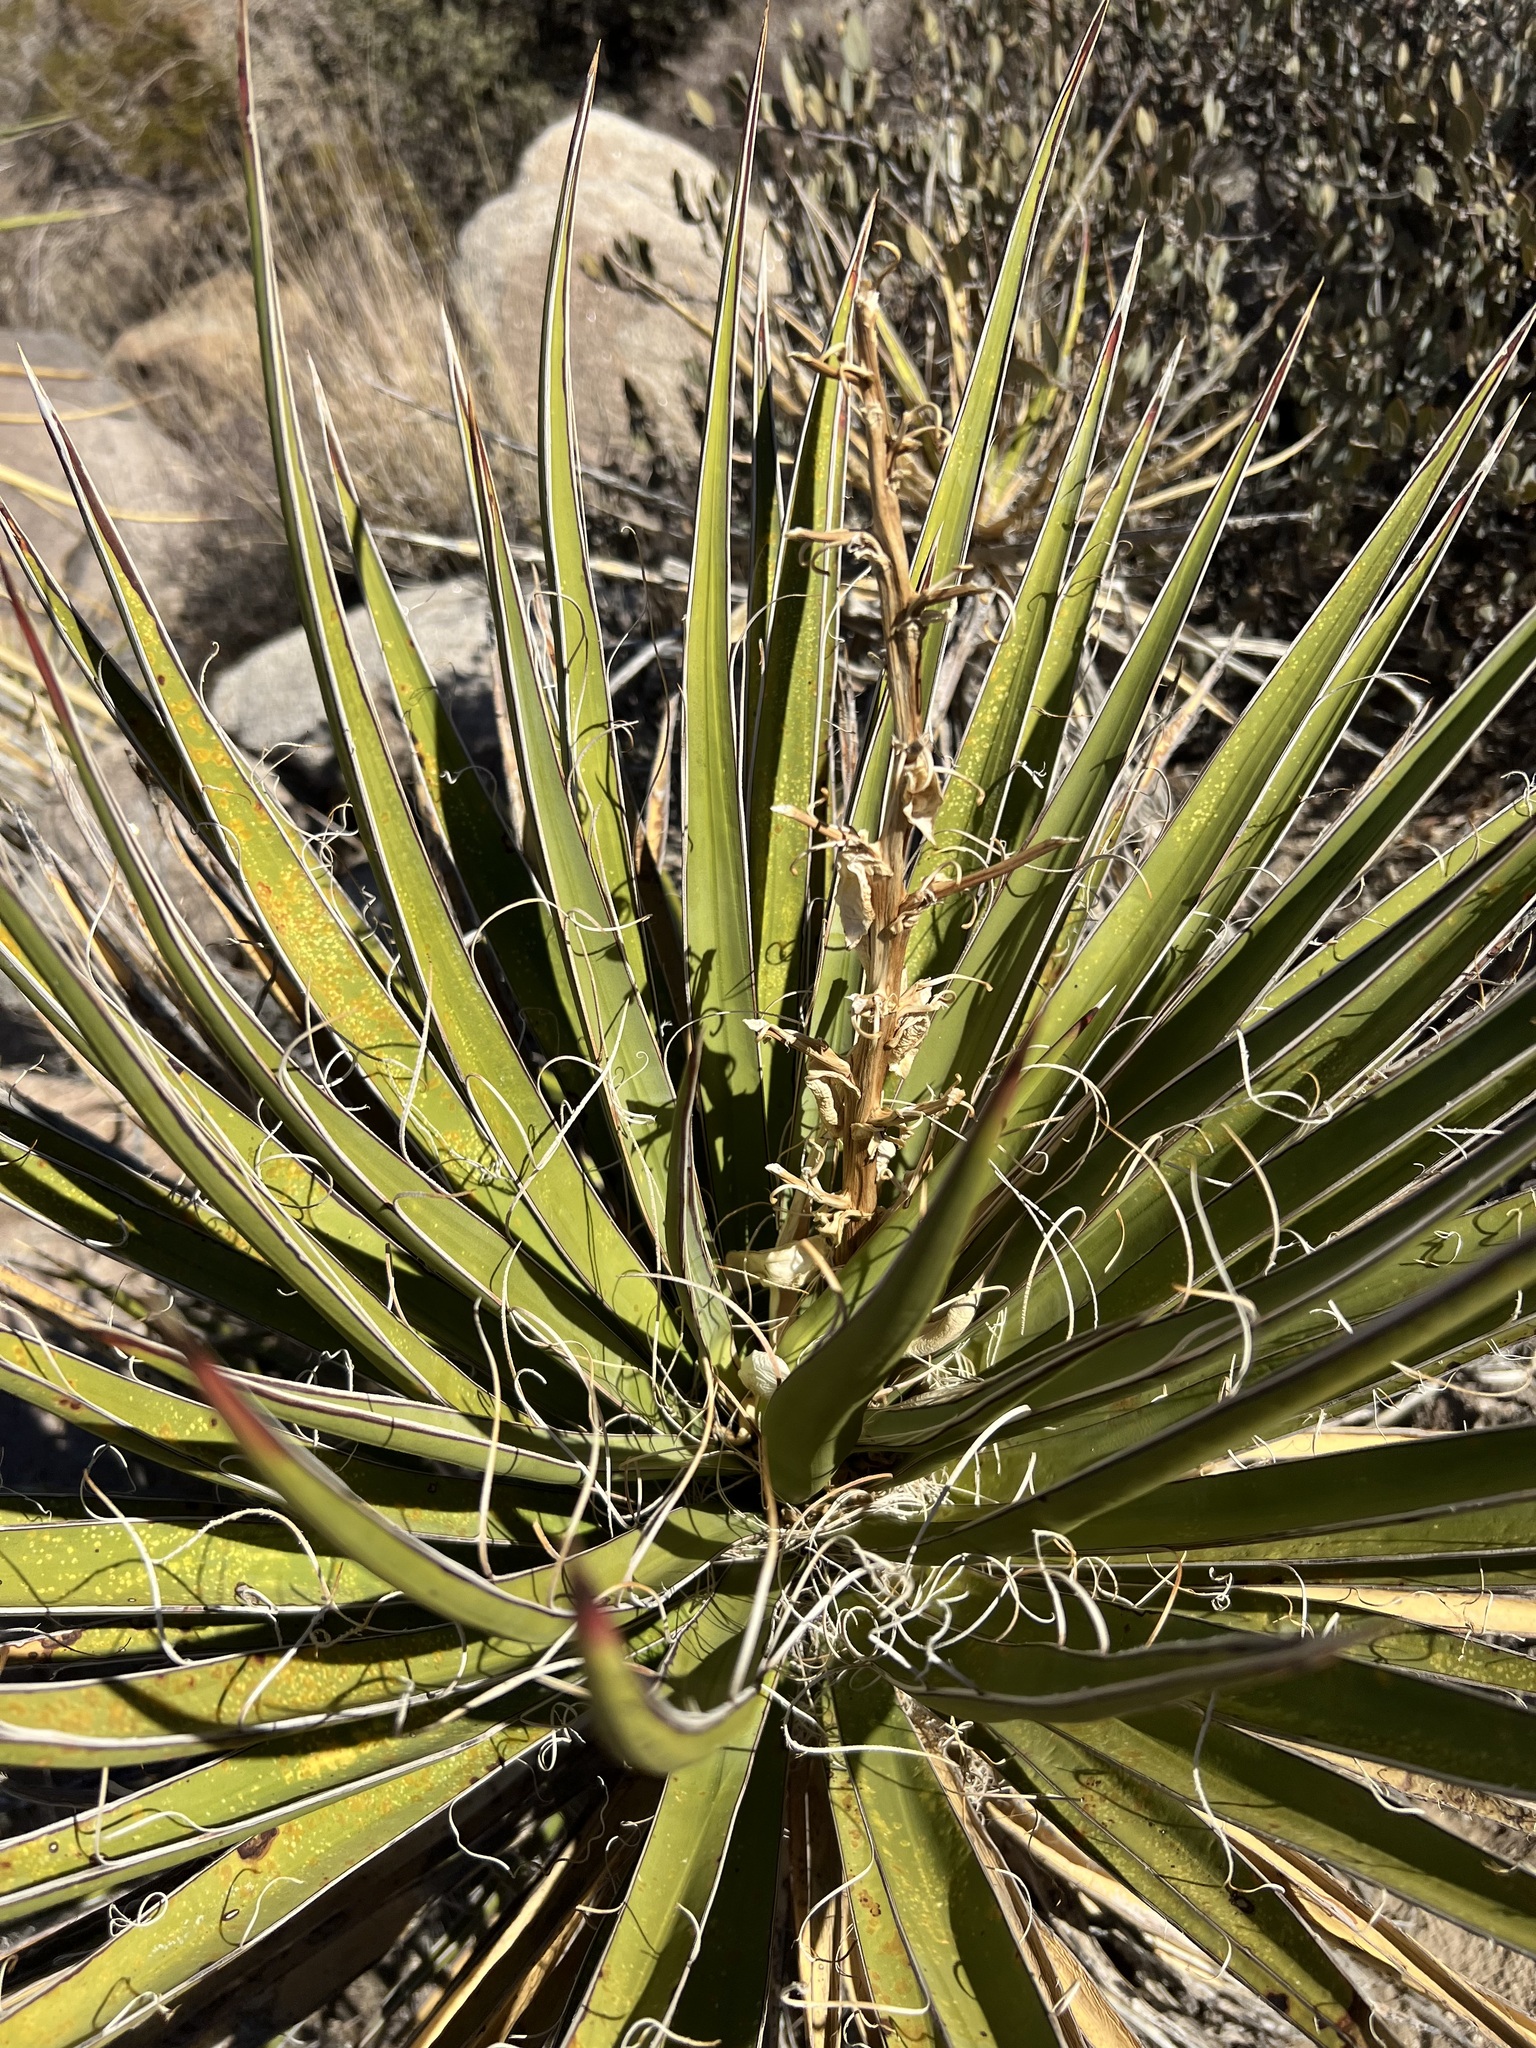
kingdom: Plantae
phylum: Tracheophyta
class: Liliopsida
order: Asparagales
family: Asparagaceae
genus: Yucca
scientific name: Yucca schidigera
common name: Mojave yucca
